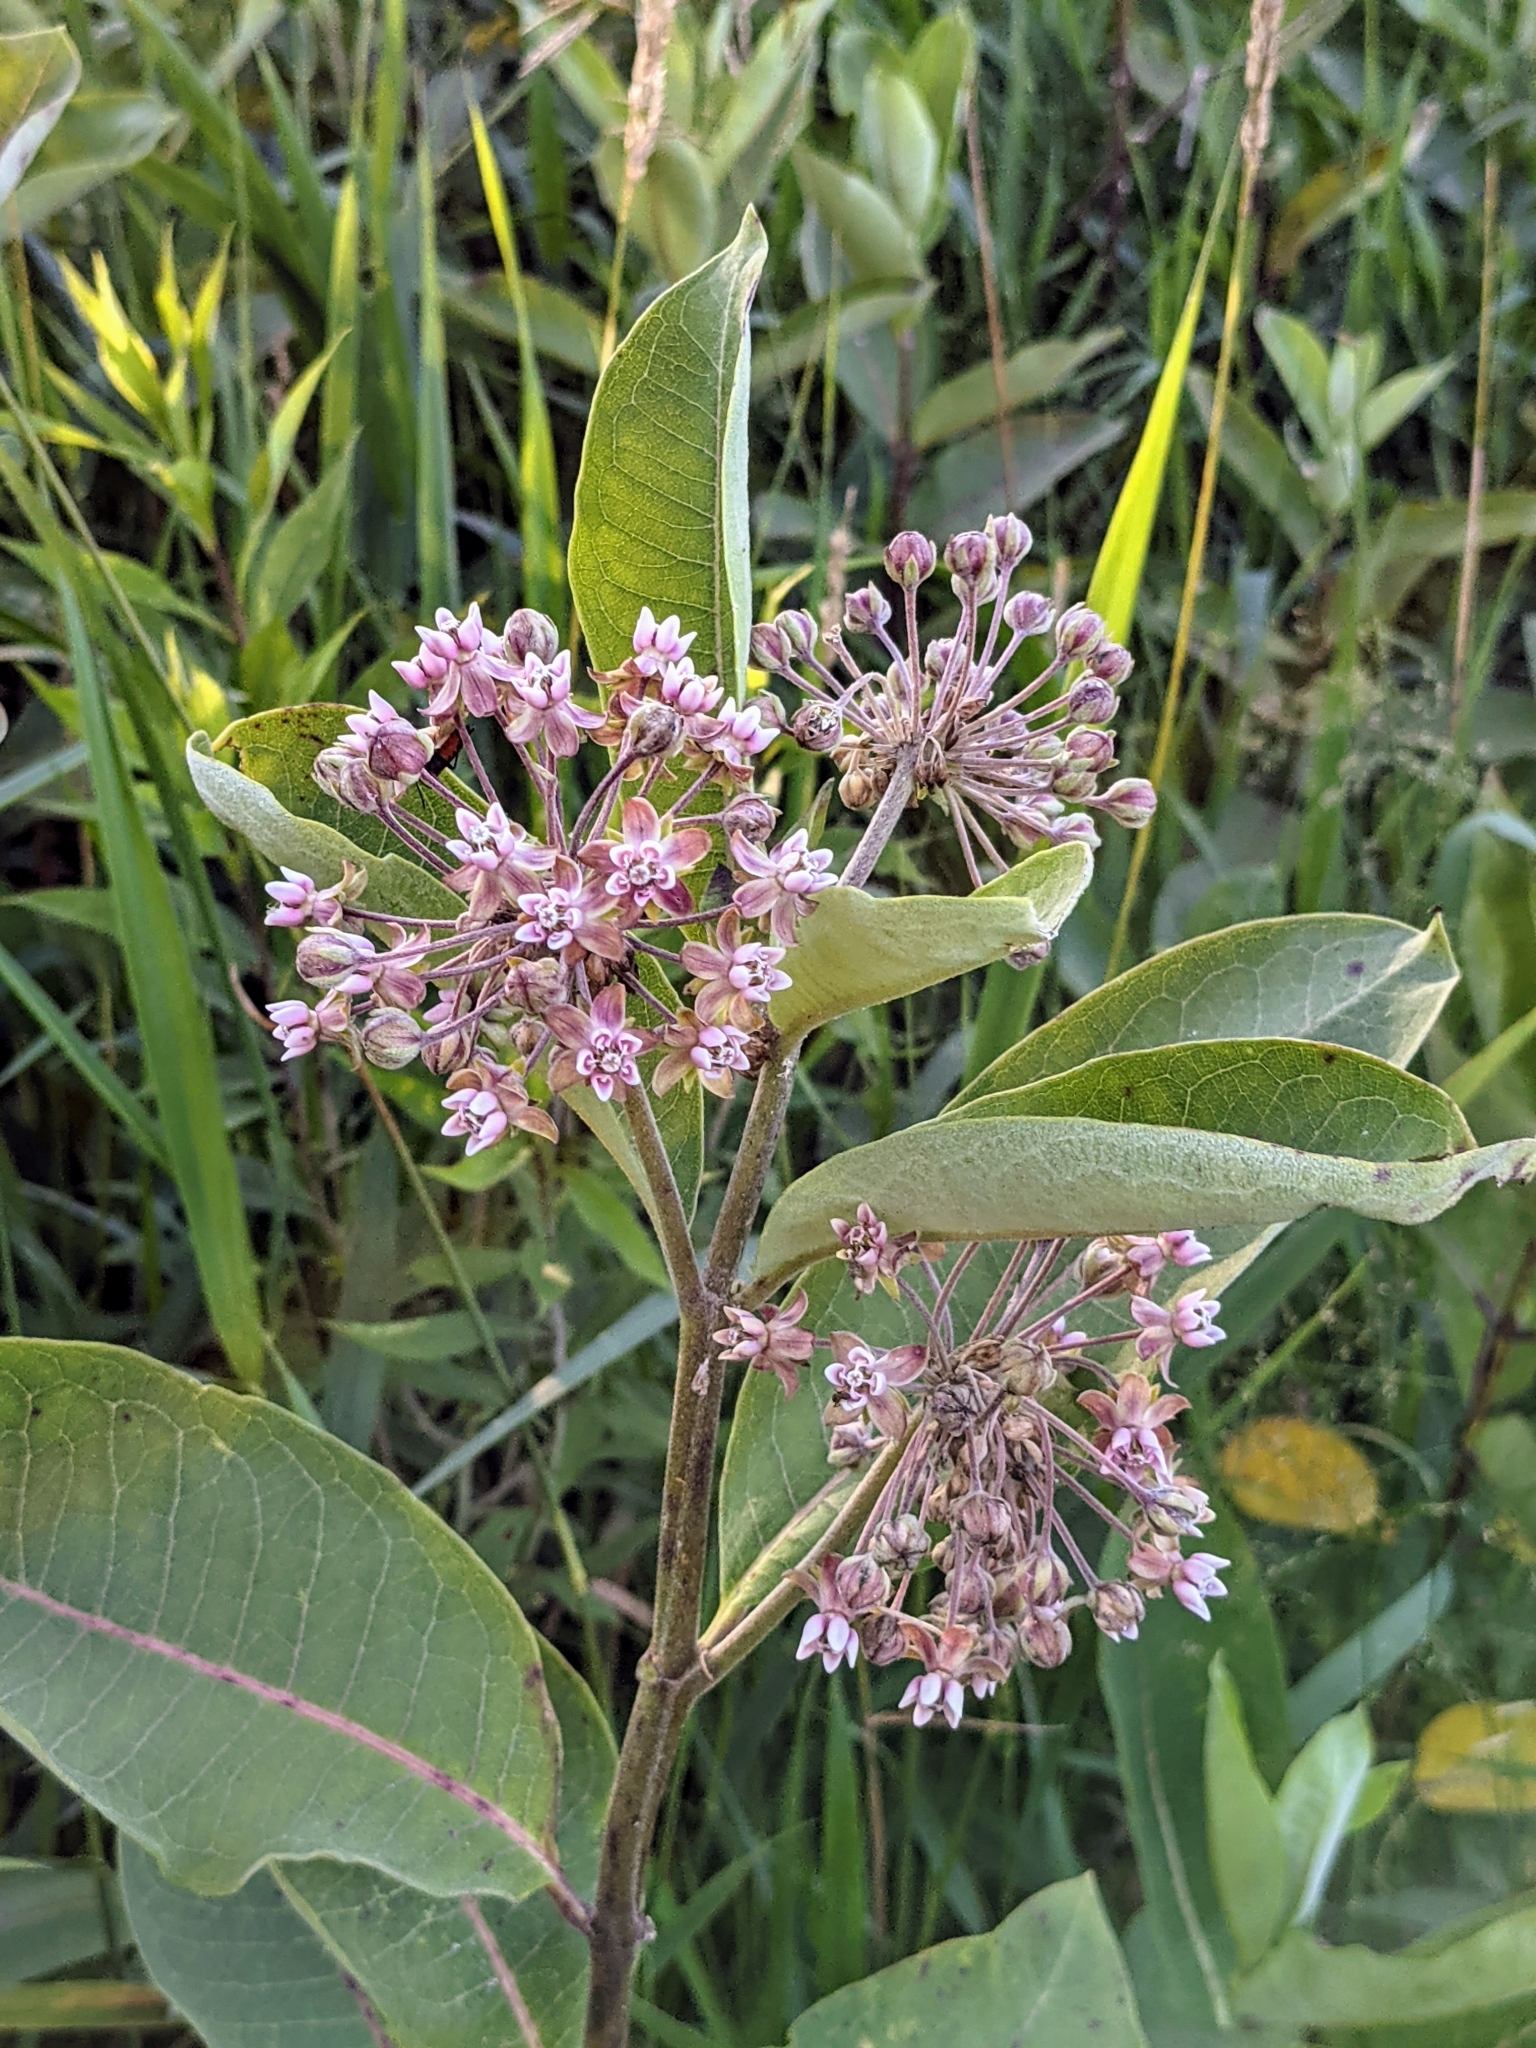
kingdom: Plantae
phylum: Tracheophyta
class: Magnoliopsida
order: Gentianales
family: Apocynaceae
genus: Asclepias
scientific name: Asclepias syriaca
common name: Common milkweed
